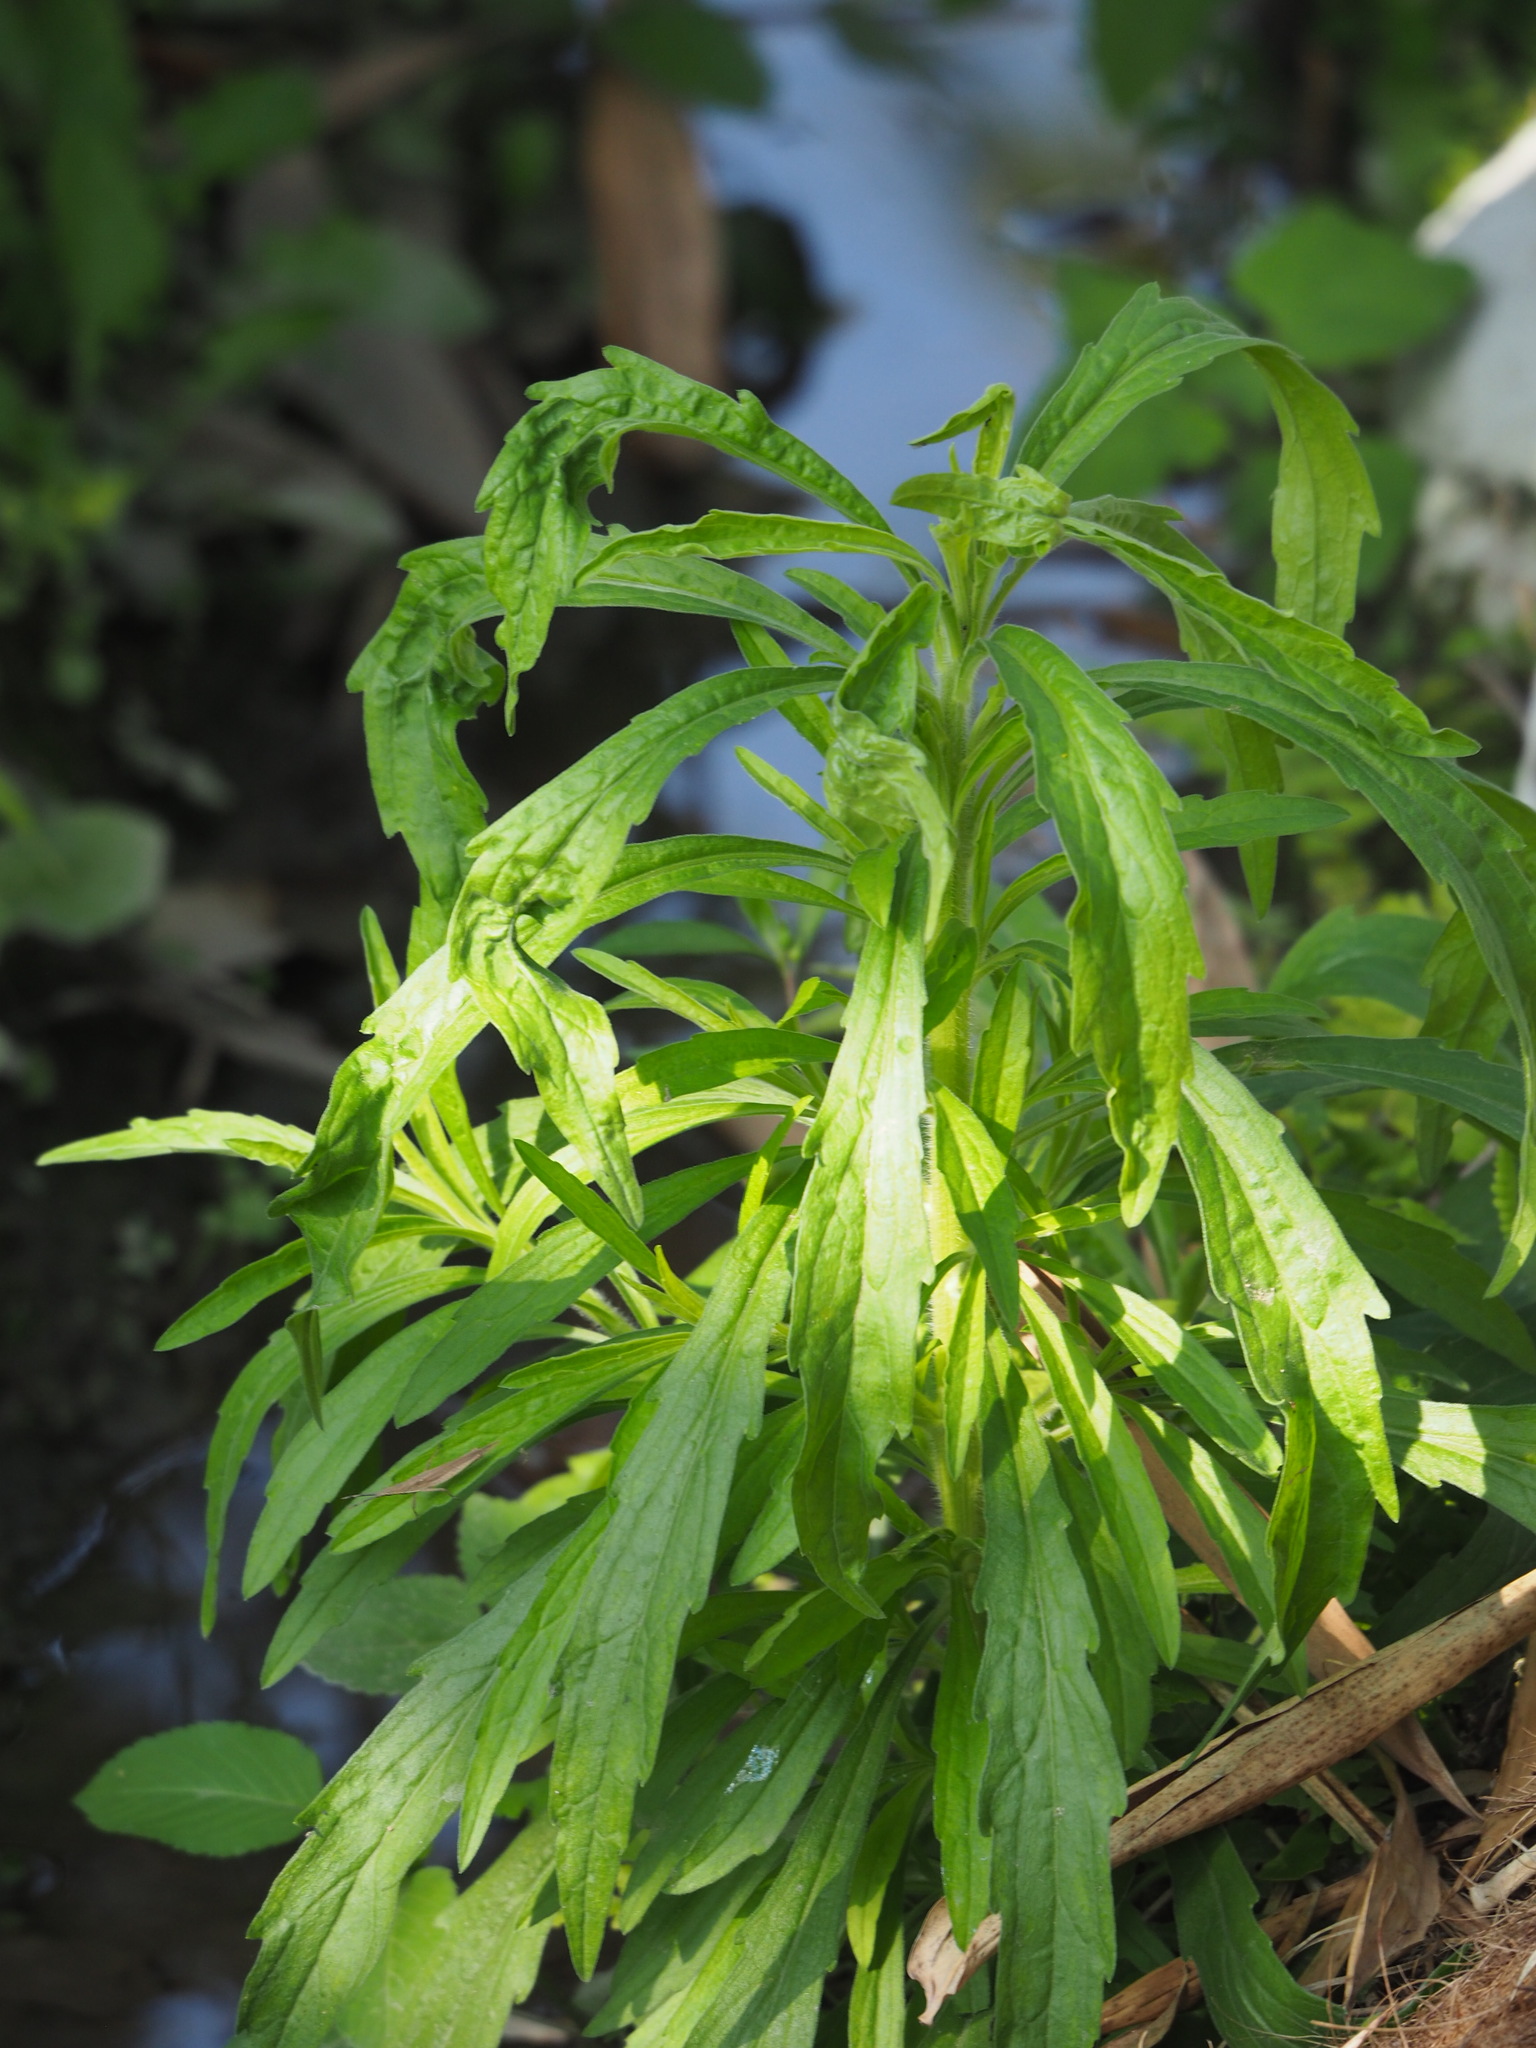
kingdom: Plantae
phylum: Tracheophyta
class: Magnoliopsida
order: Asterales
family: Asteraceae
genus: Erigeron
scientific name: Erigeron sumatrensis
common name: Daisy
